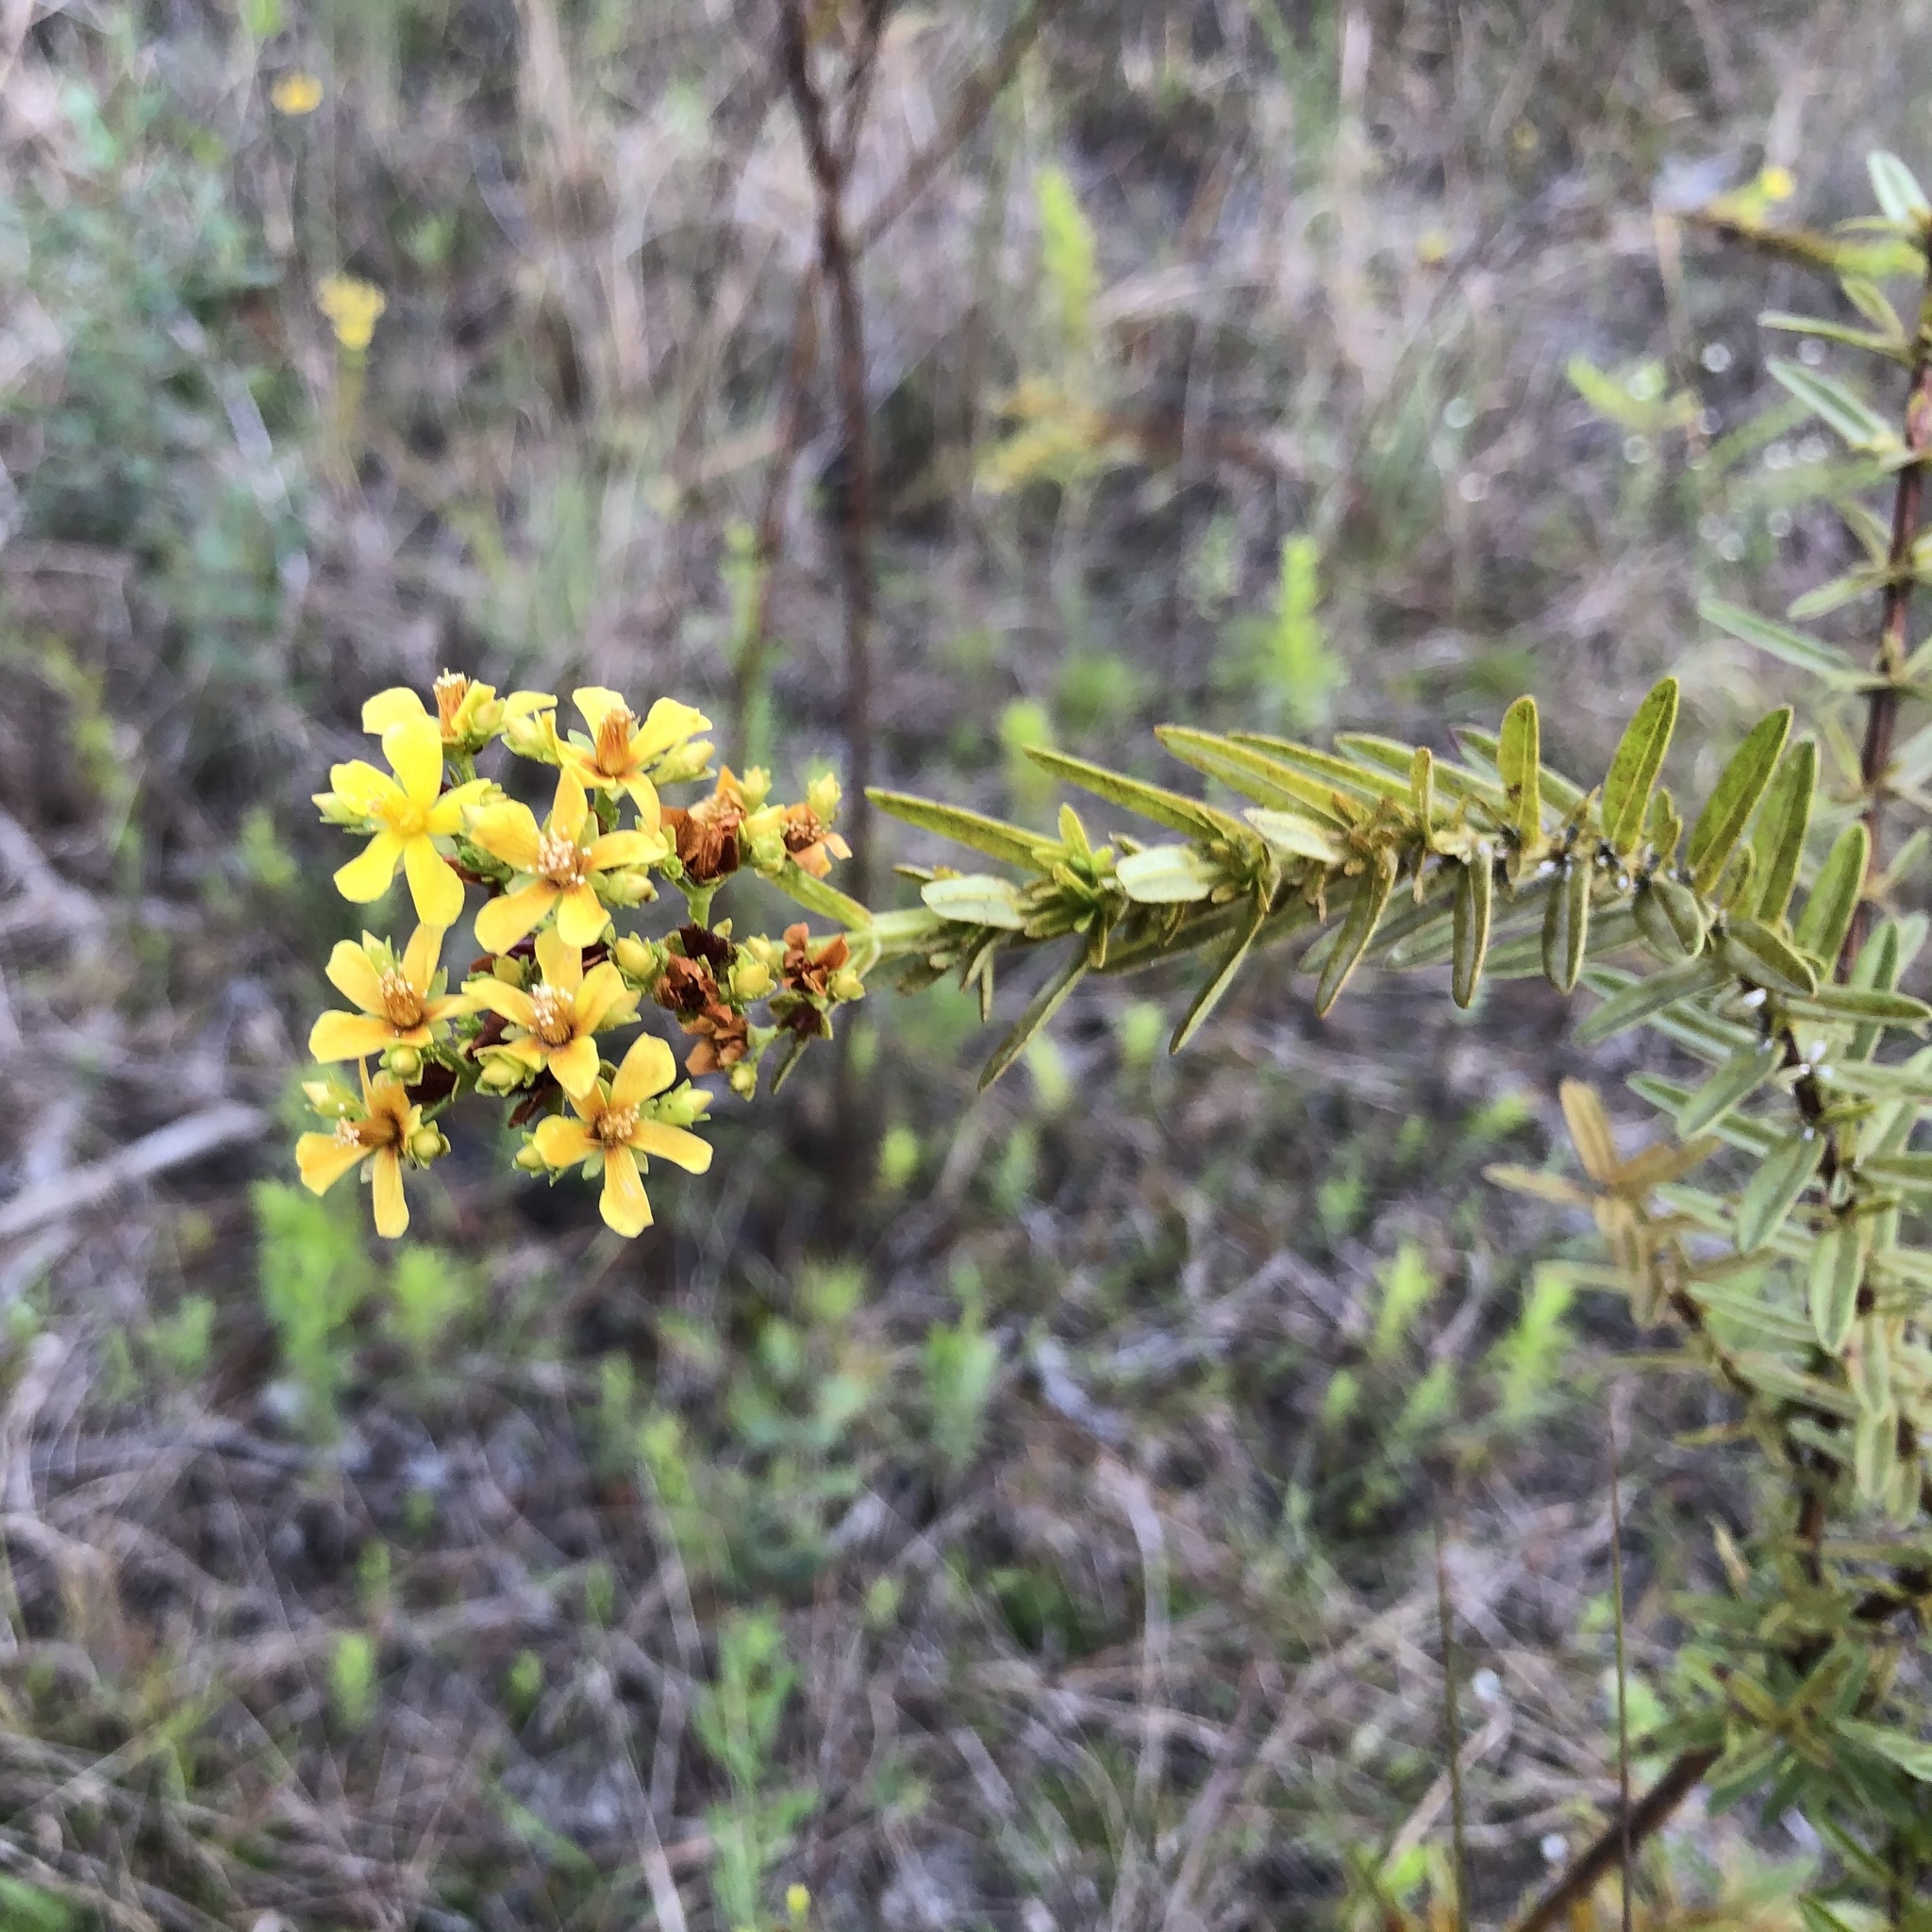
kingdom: Plantae
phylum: Tracheophyta
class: Magnoliopsida
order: Malpighiales
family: Hypericaceae
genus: Hypericum
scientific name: Hypericum cistifolium
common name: Round-pod st. john's-wort
